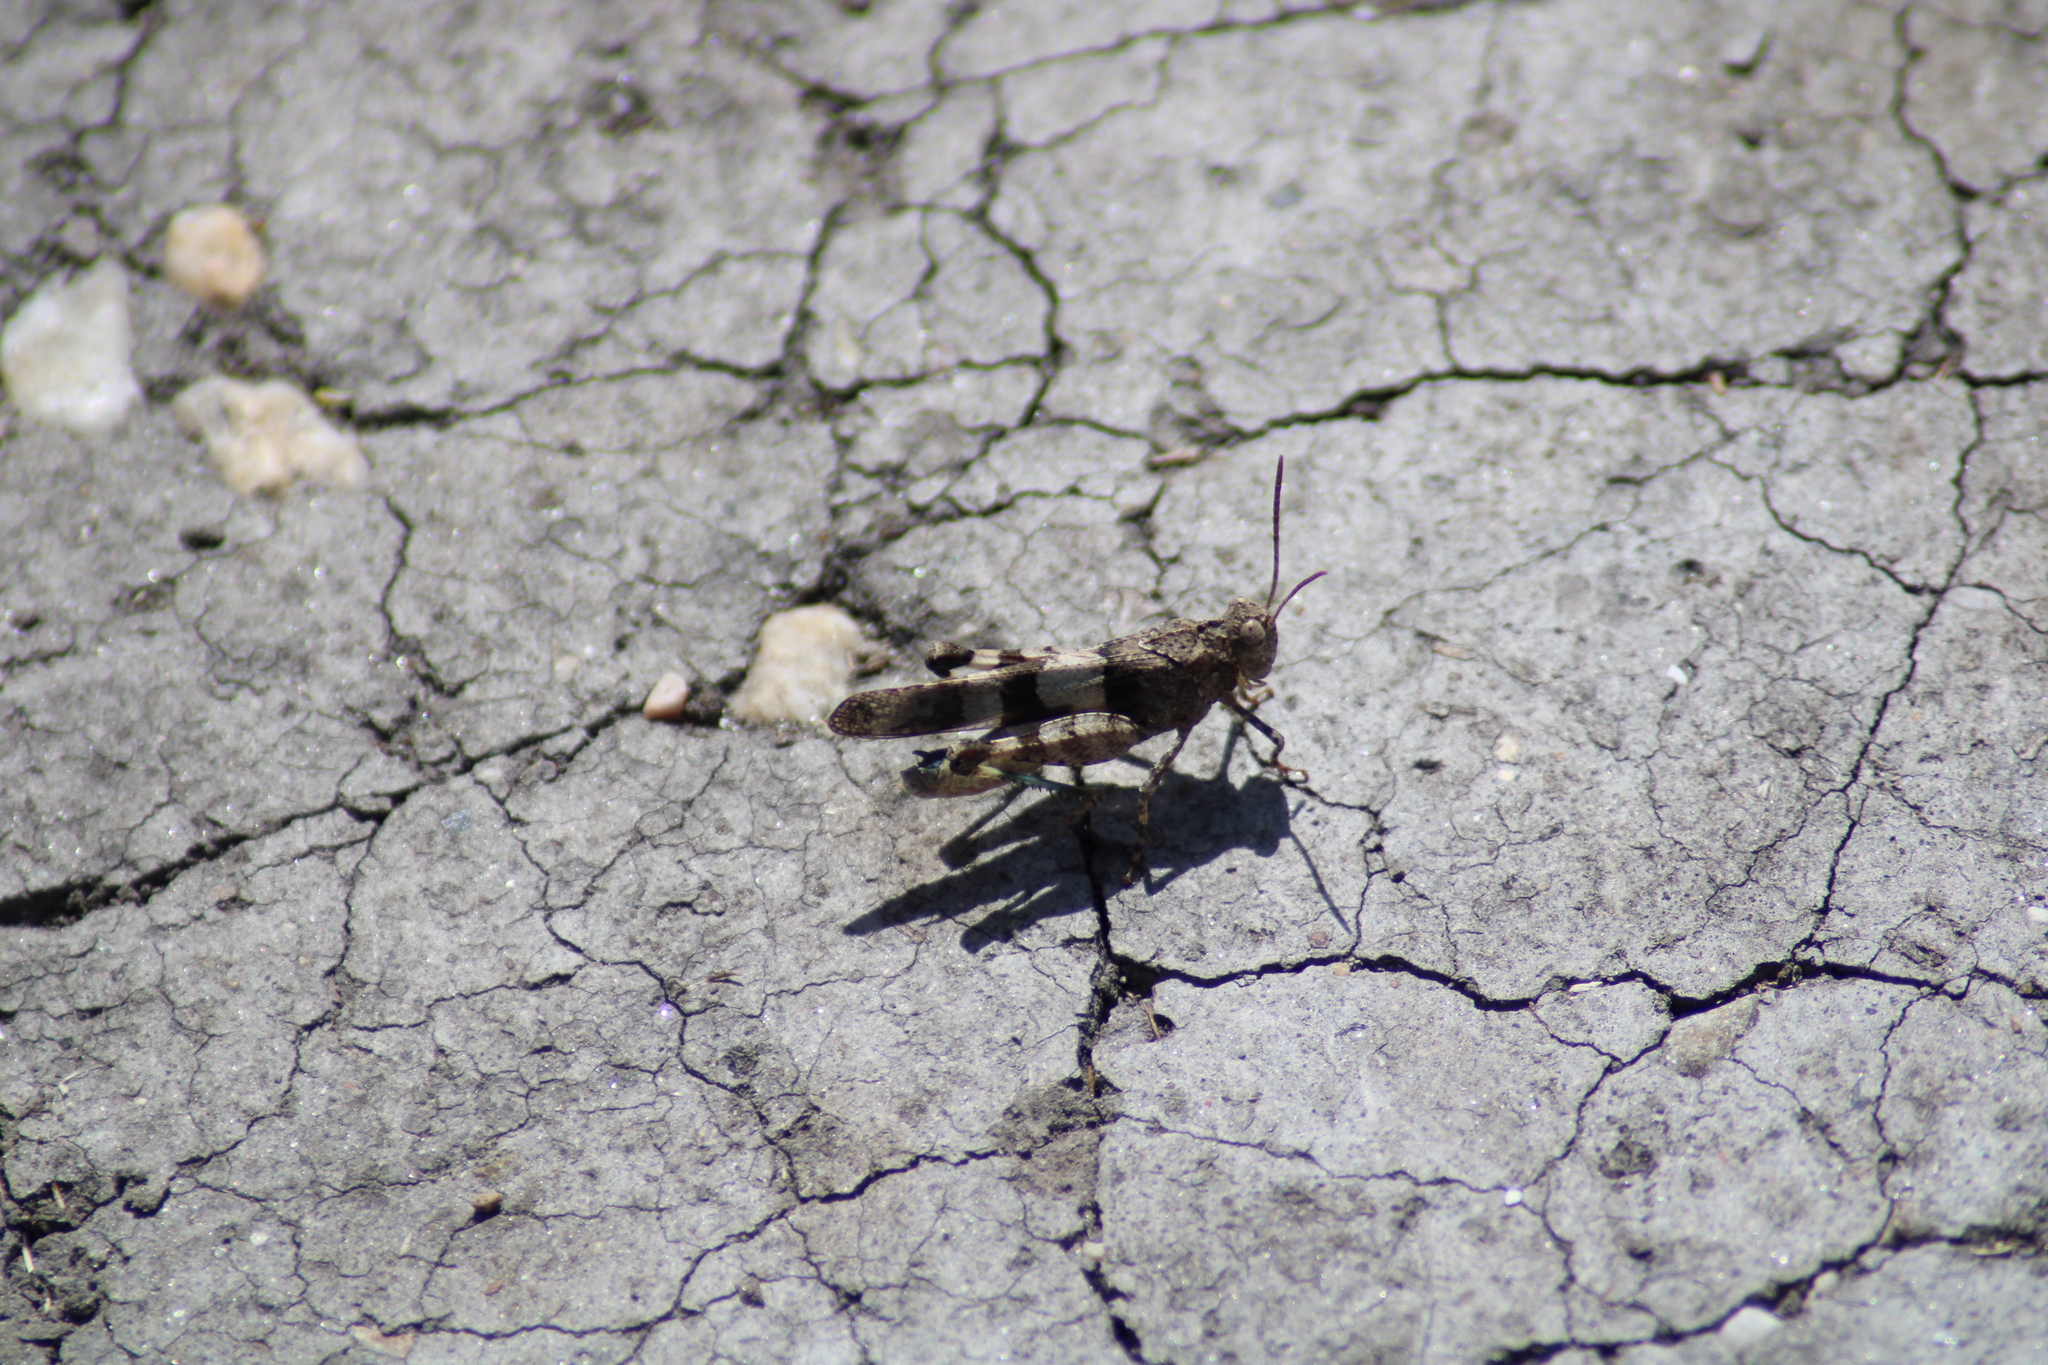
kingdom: Animalia
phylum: Arthropoda
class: Insecta
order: Orthoptera
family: Acrididae
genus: Oedipoda
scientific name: Oedipoda caerulescens
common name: Blue-winged grasshopper
